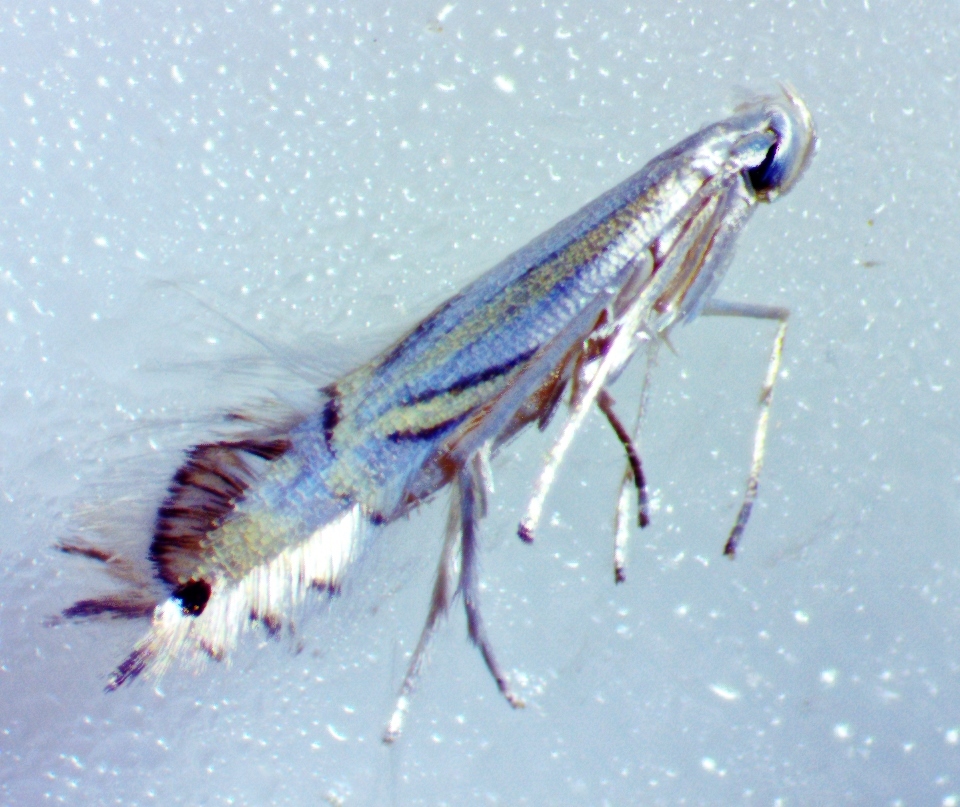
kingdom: Animalia
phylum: Arthropoda
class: Insecta
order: Lepidoptera
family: Gracillariidae
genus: Phyllocnistis
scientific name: Phyllocnistis liriodendronella
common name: Tulip tree leaf miner
